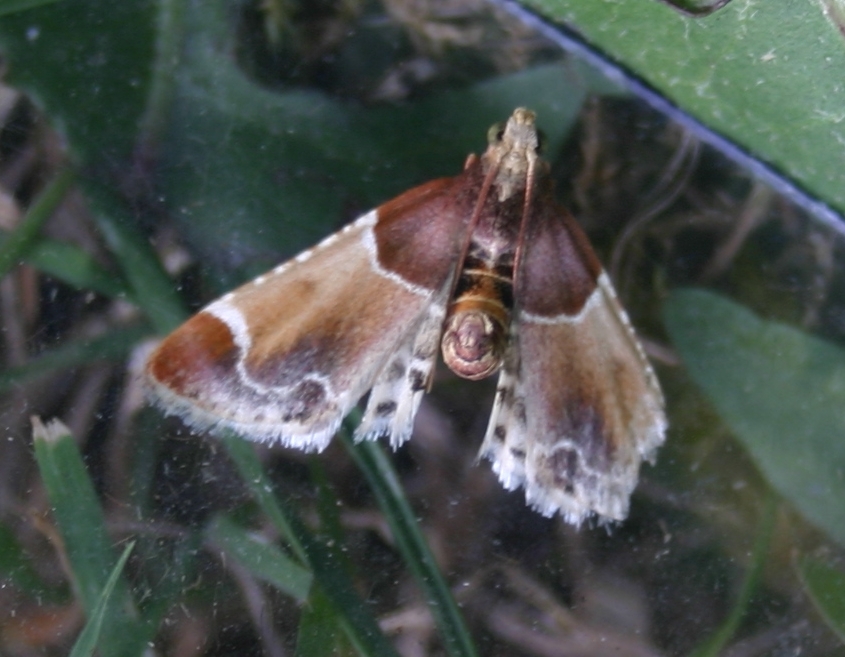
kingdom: Animalia
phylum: Arthropoda
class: Insecta
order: Lepidoptera
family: Pyralidae
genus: Pyralis
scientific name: Pyralis farinalis
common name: Meal moth
